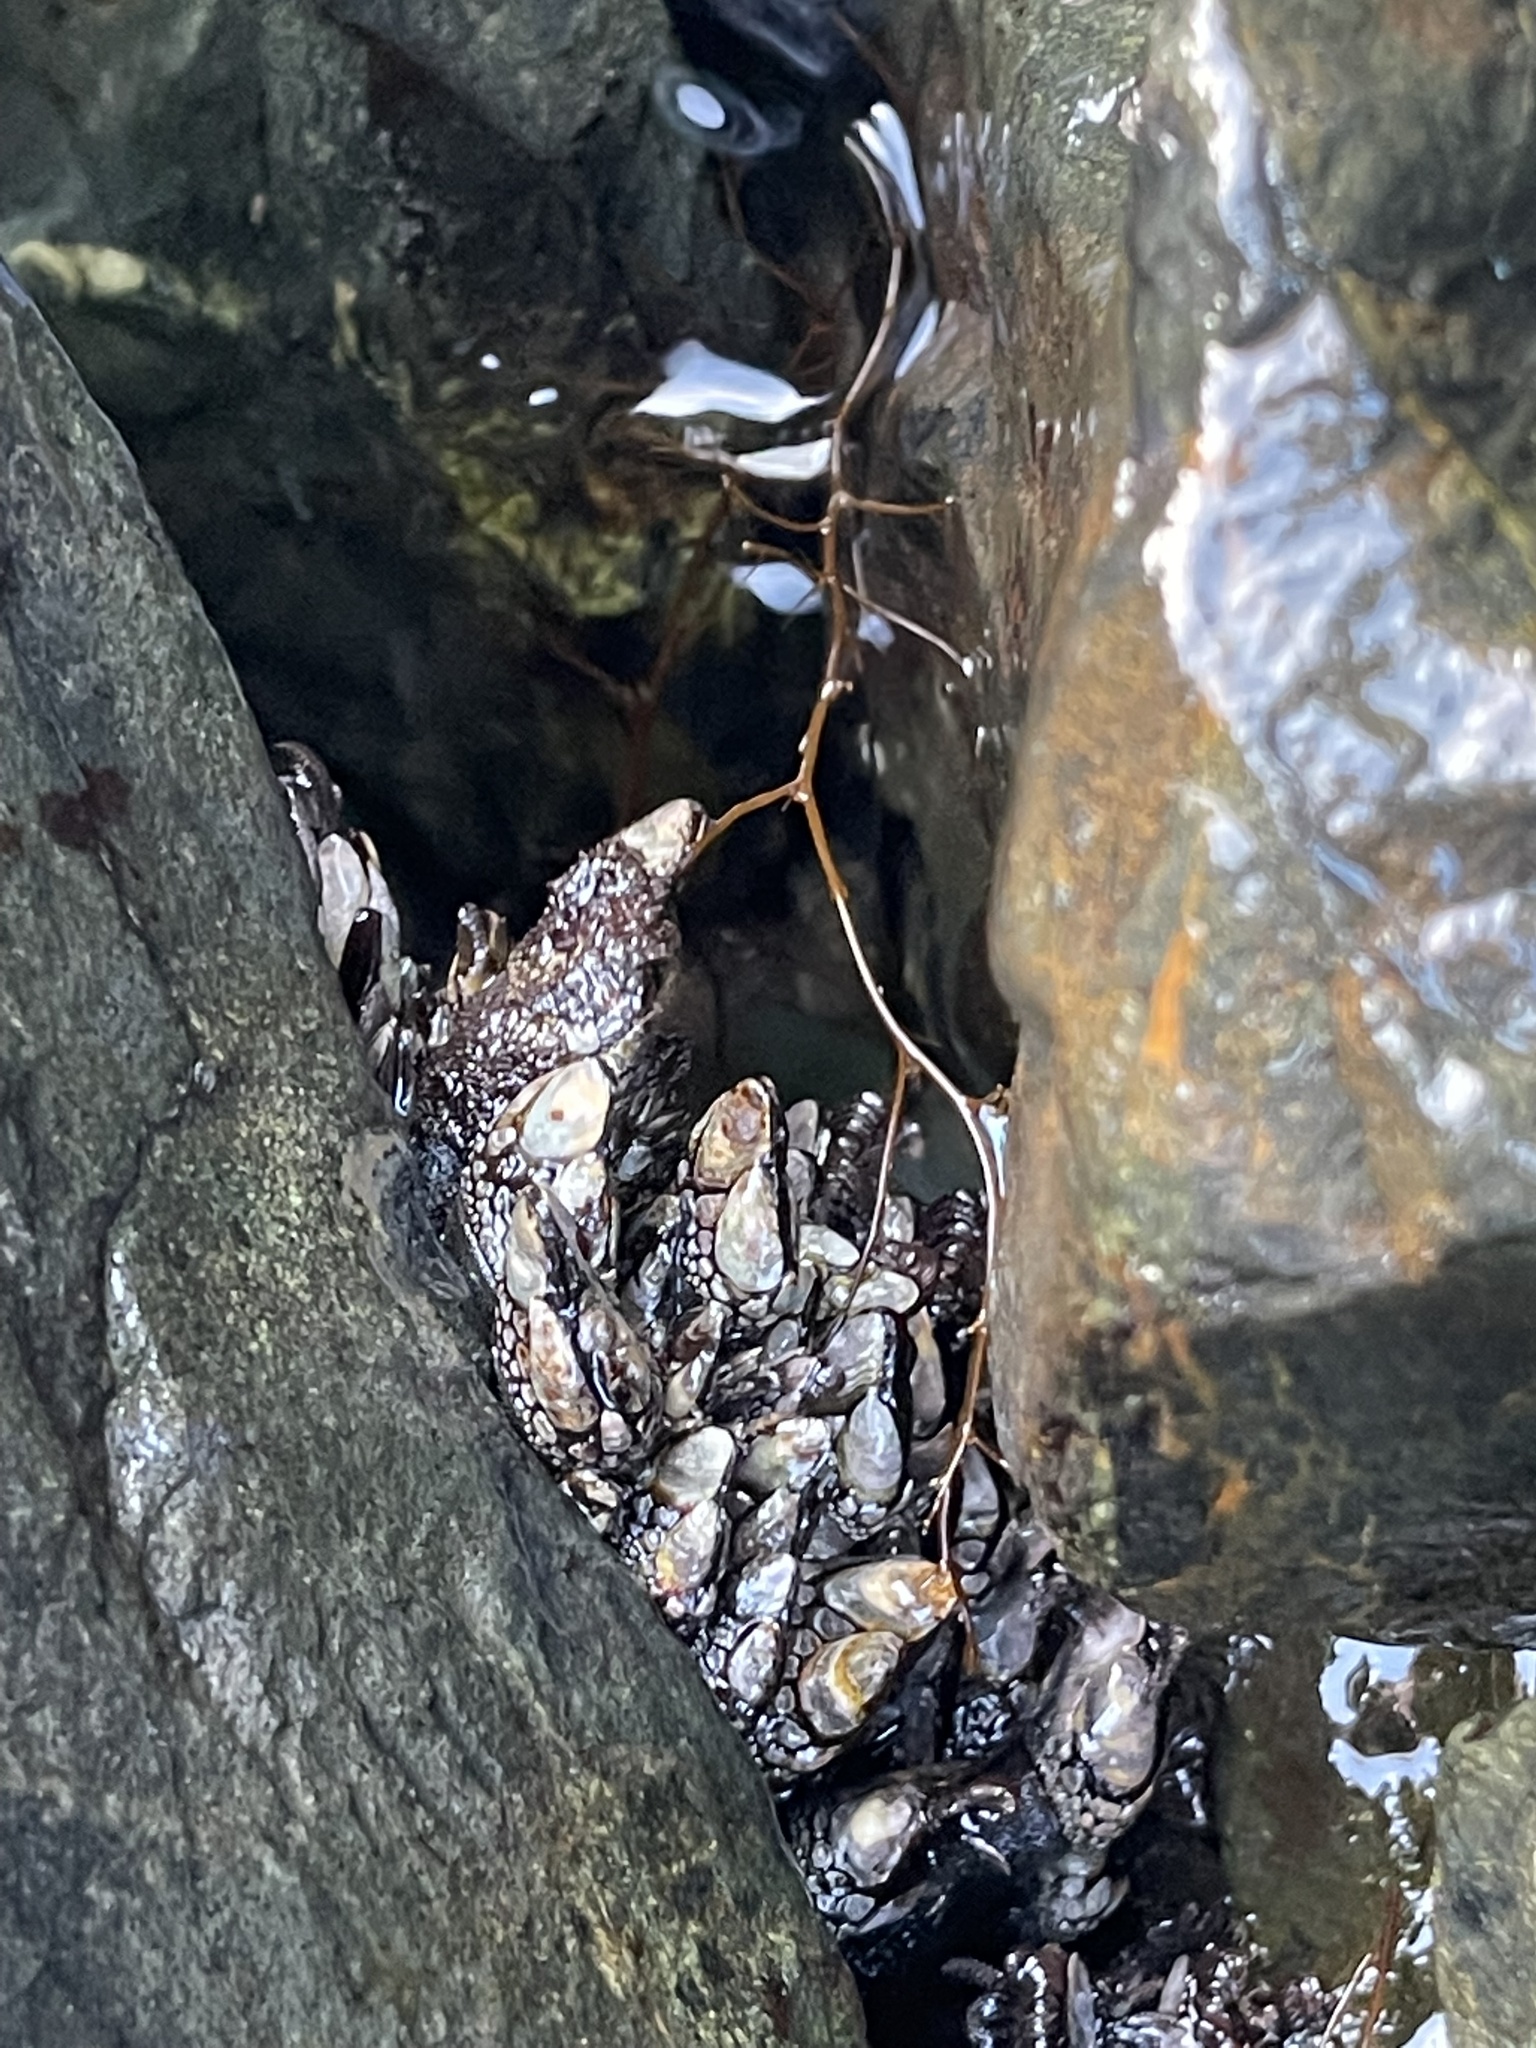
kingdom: Animalia
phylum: Arthropoda
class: Maxillopoda
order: Pedunculata
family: Pollicipedidae
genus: Pollicipes
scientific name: Pollicipes polymerus
